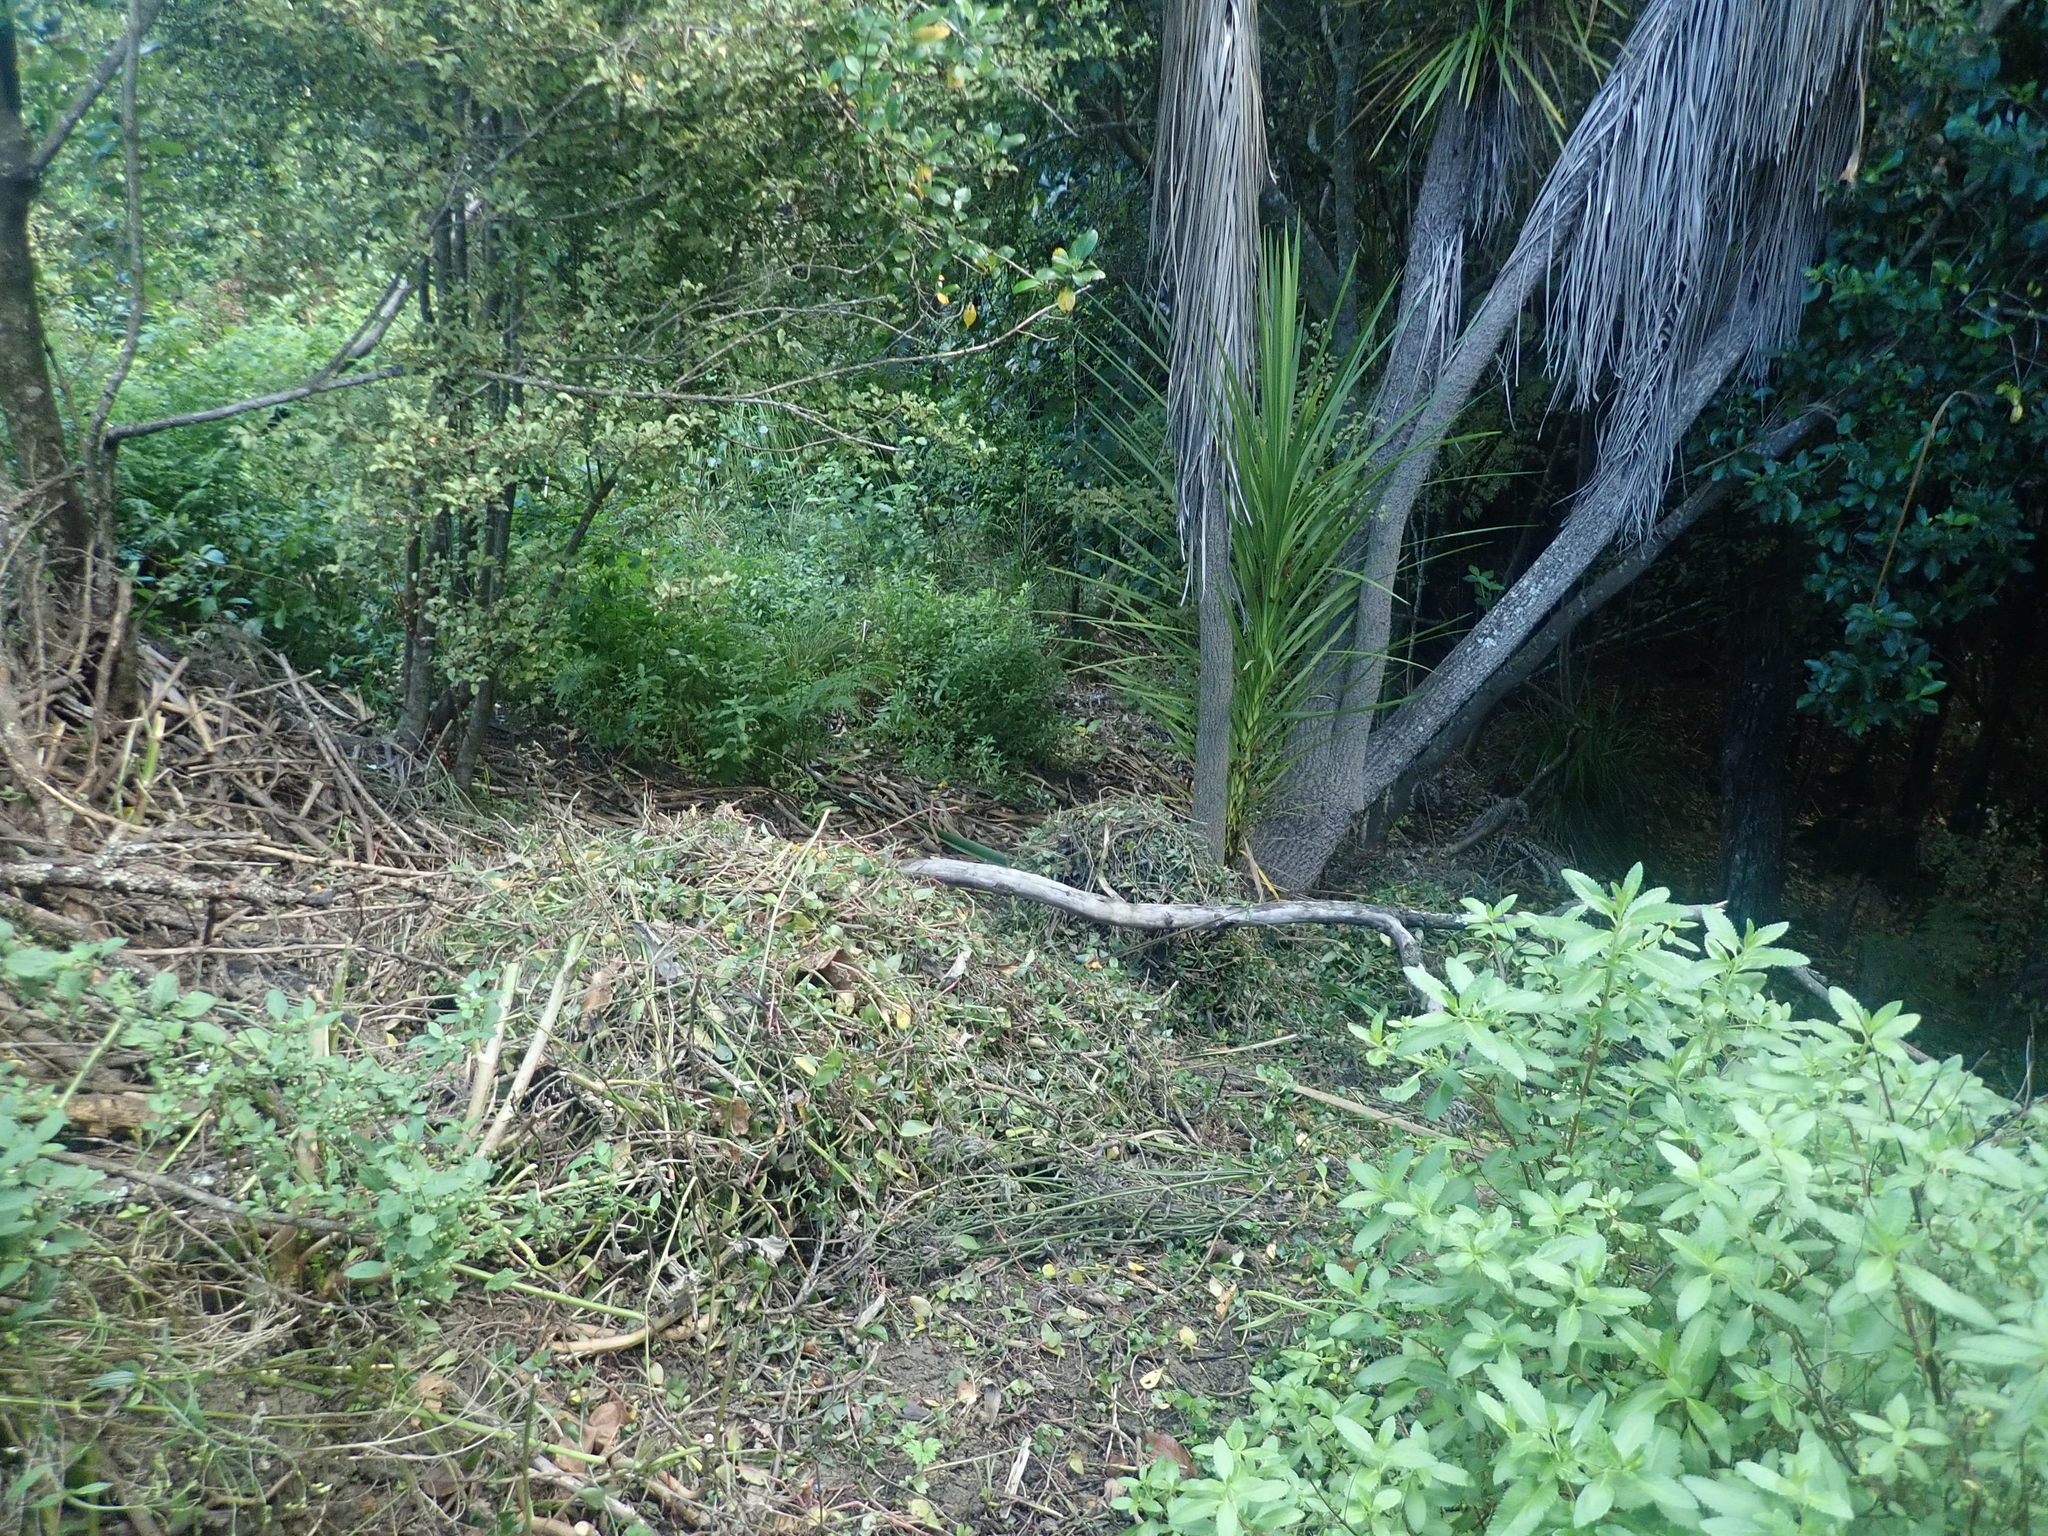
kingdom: Plantae
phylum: Tracheophyta
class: Liliopsida
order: Asparagales
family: Asparagaceae
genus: Cordyline
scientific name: Cordyline australis
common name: Cabbage-palm
